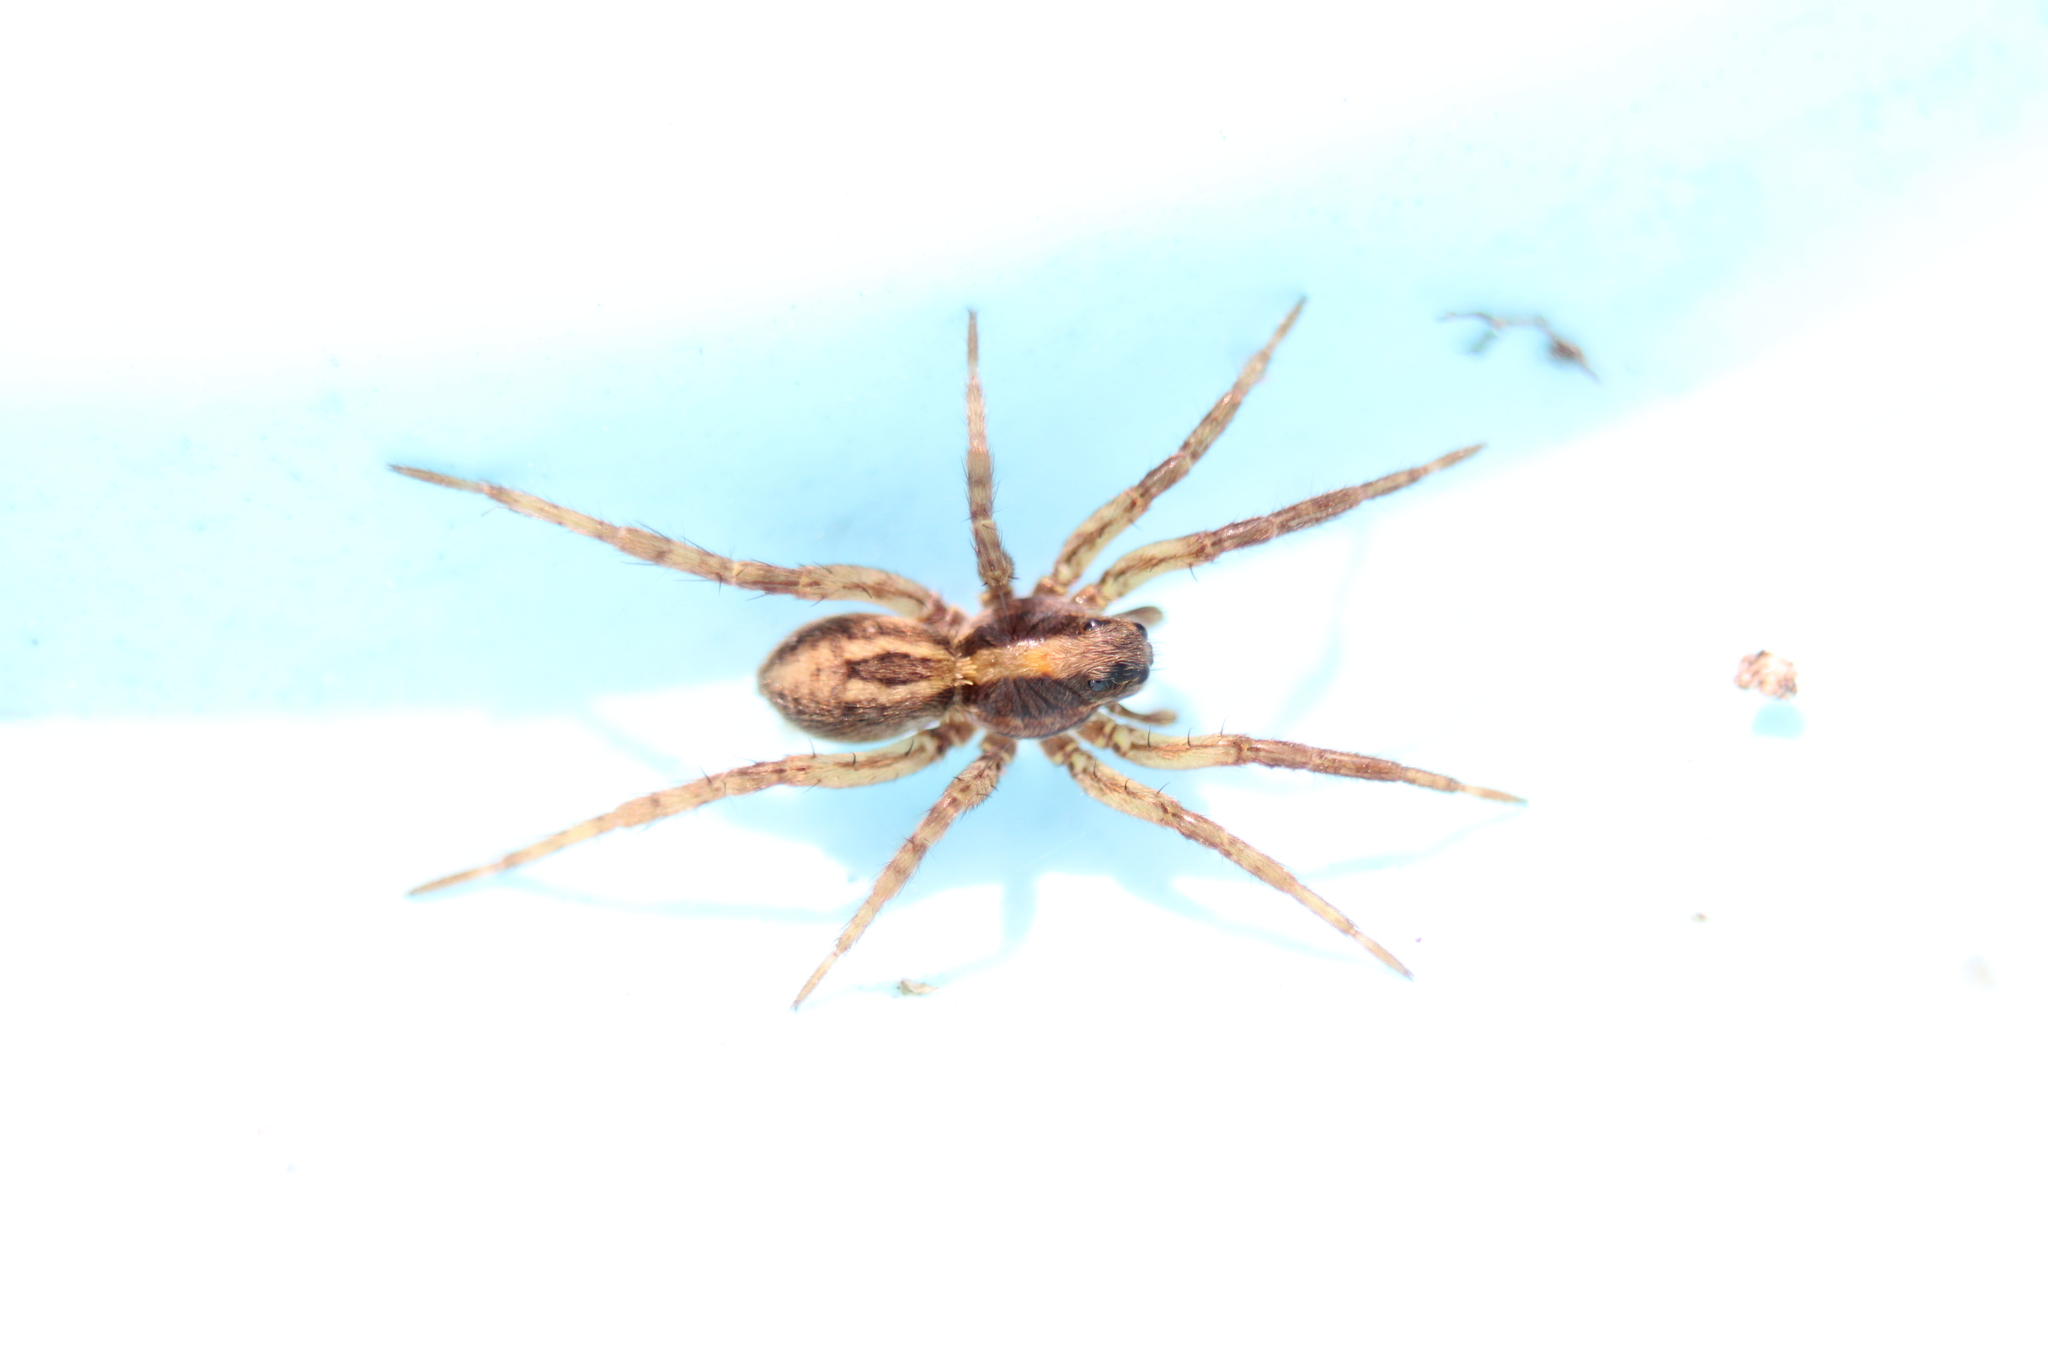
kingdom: Animalia
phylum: Arthropoda
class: Arachnida
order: Araneae
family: Lycosidae
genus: Schizocosa
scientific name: Schizocosa avida
